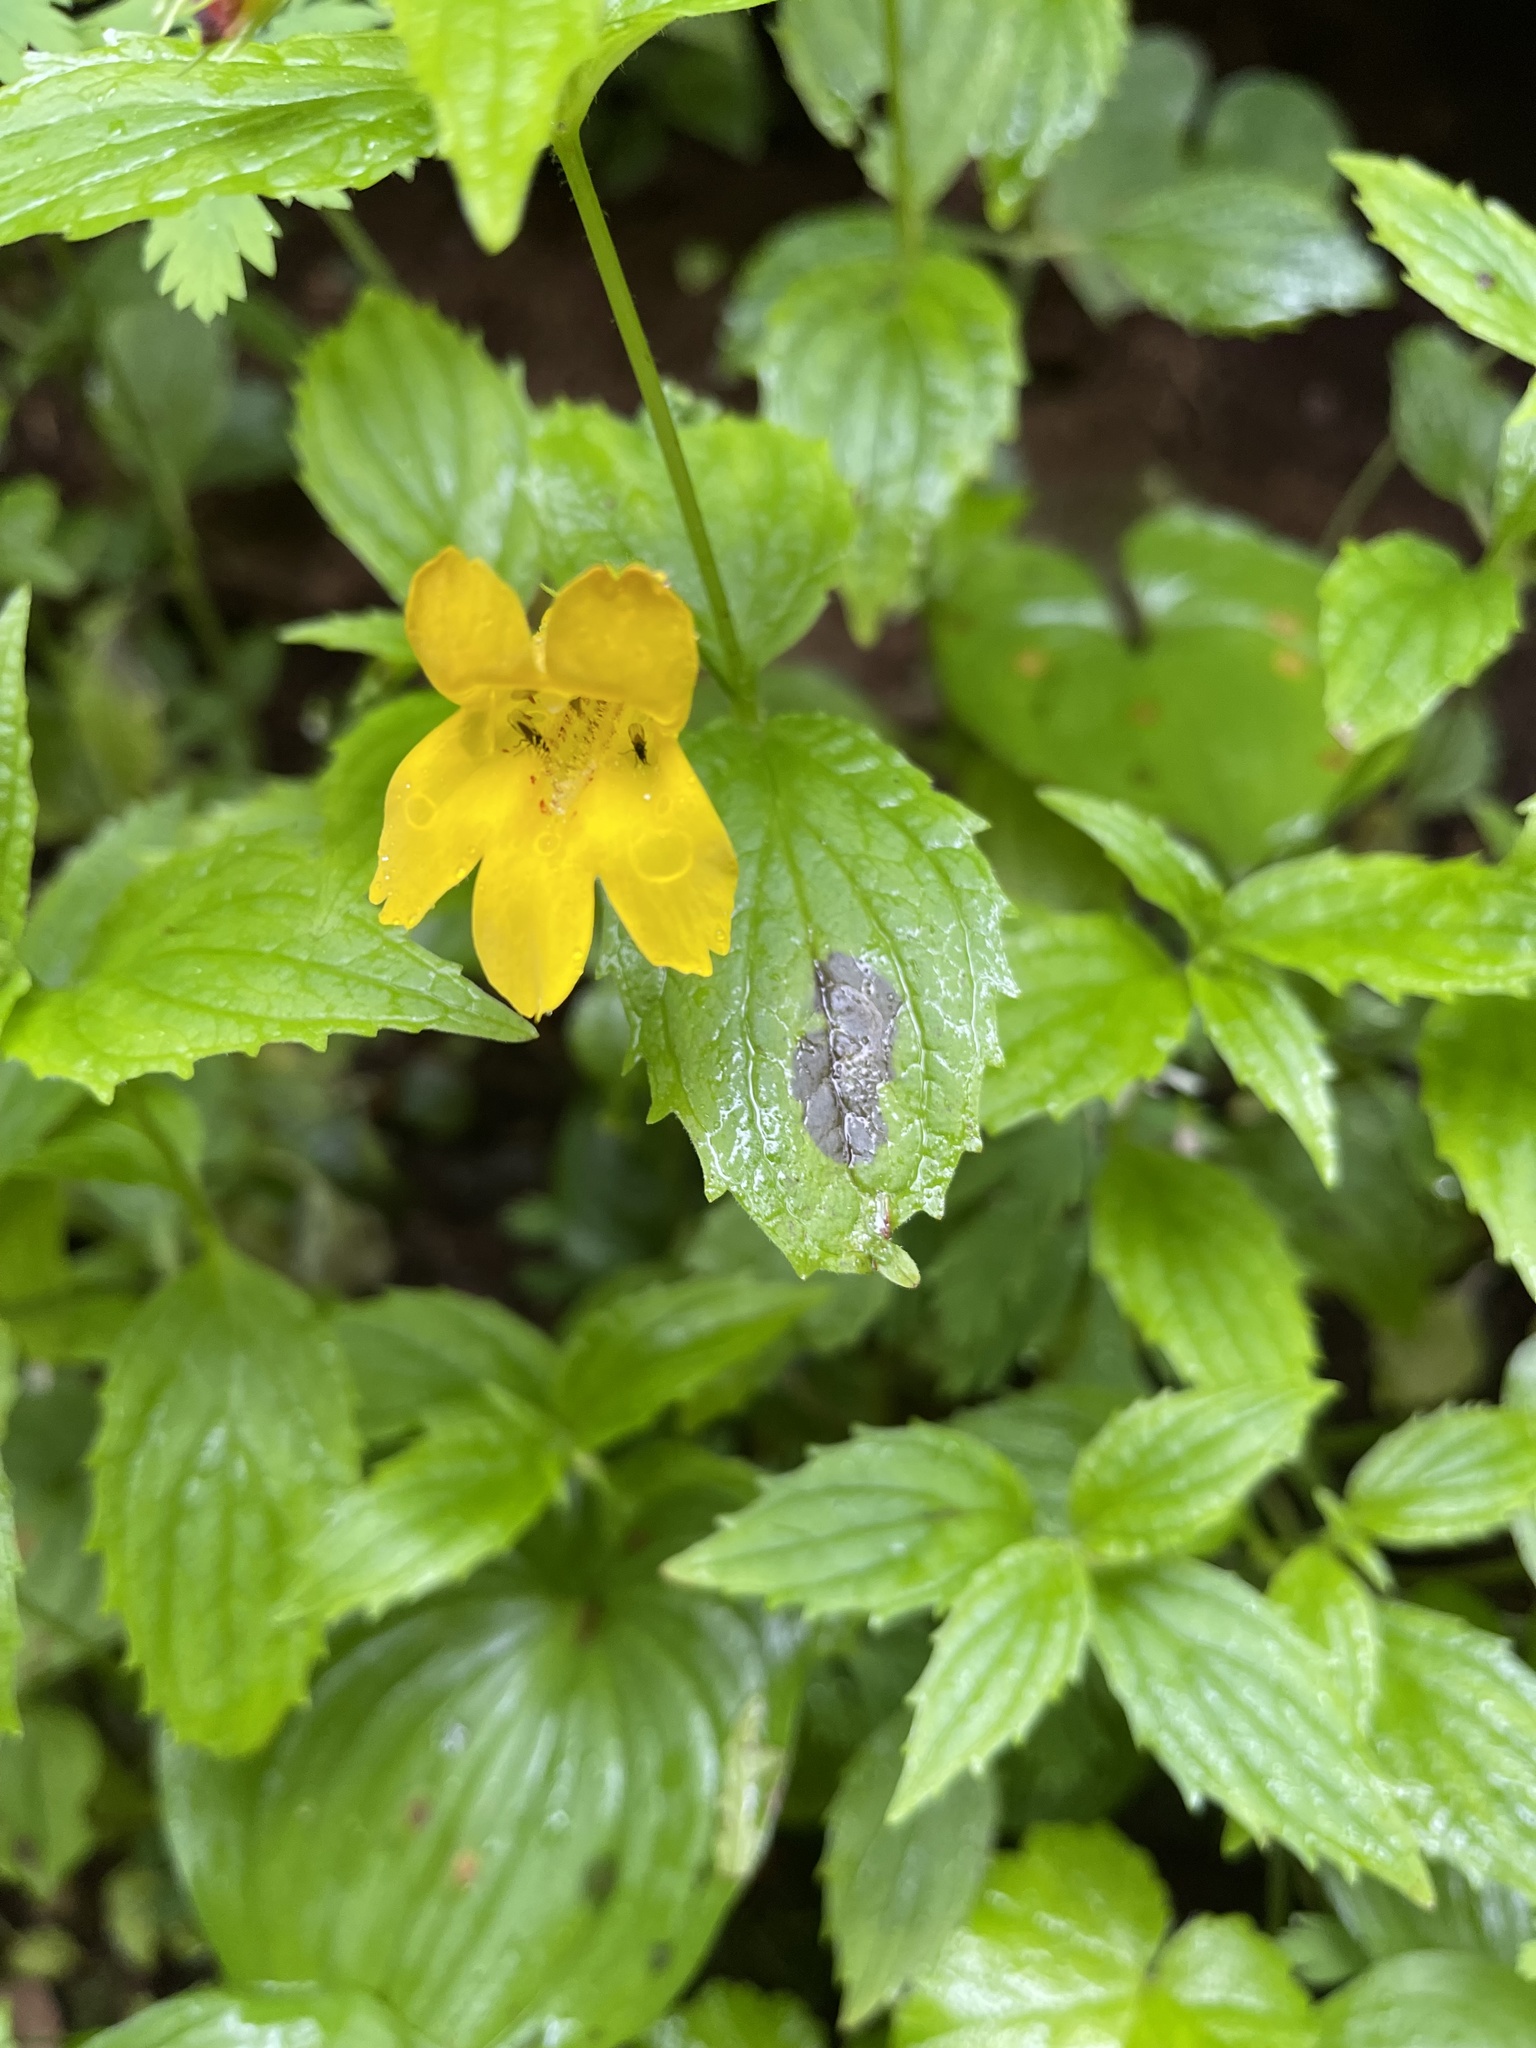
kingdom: Plantae
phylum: Tracheophyta
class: Magnoliopsida
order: Lamiales
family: Phrymaceae
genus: Erythranthe
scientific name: Erythranthe dentata
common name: Coastal monkeyflower
